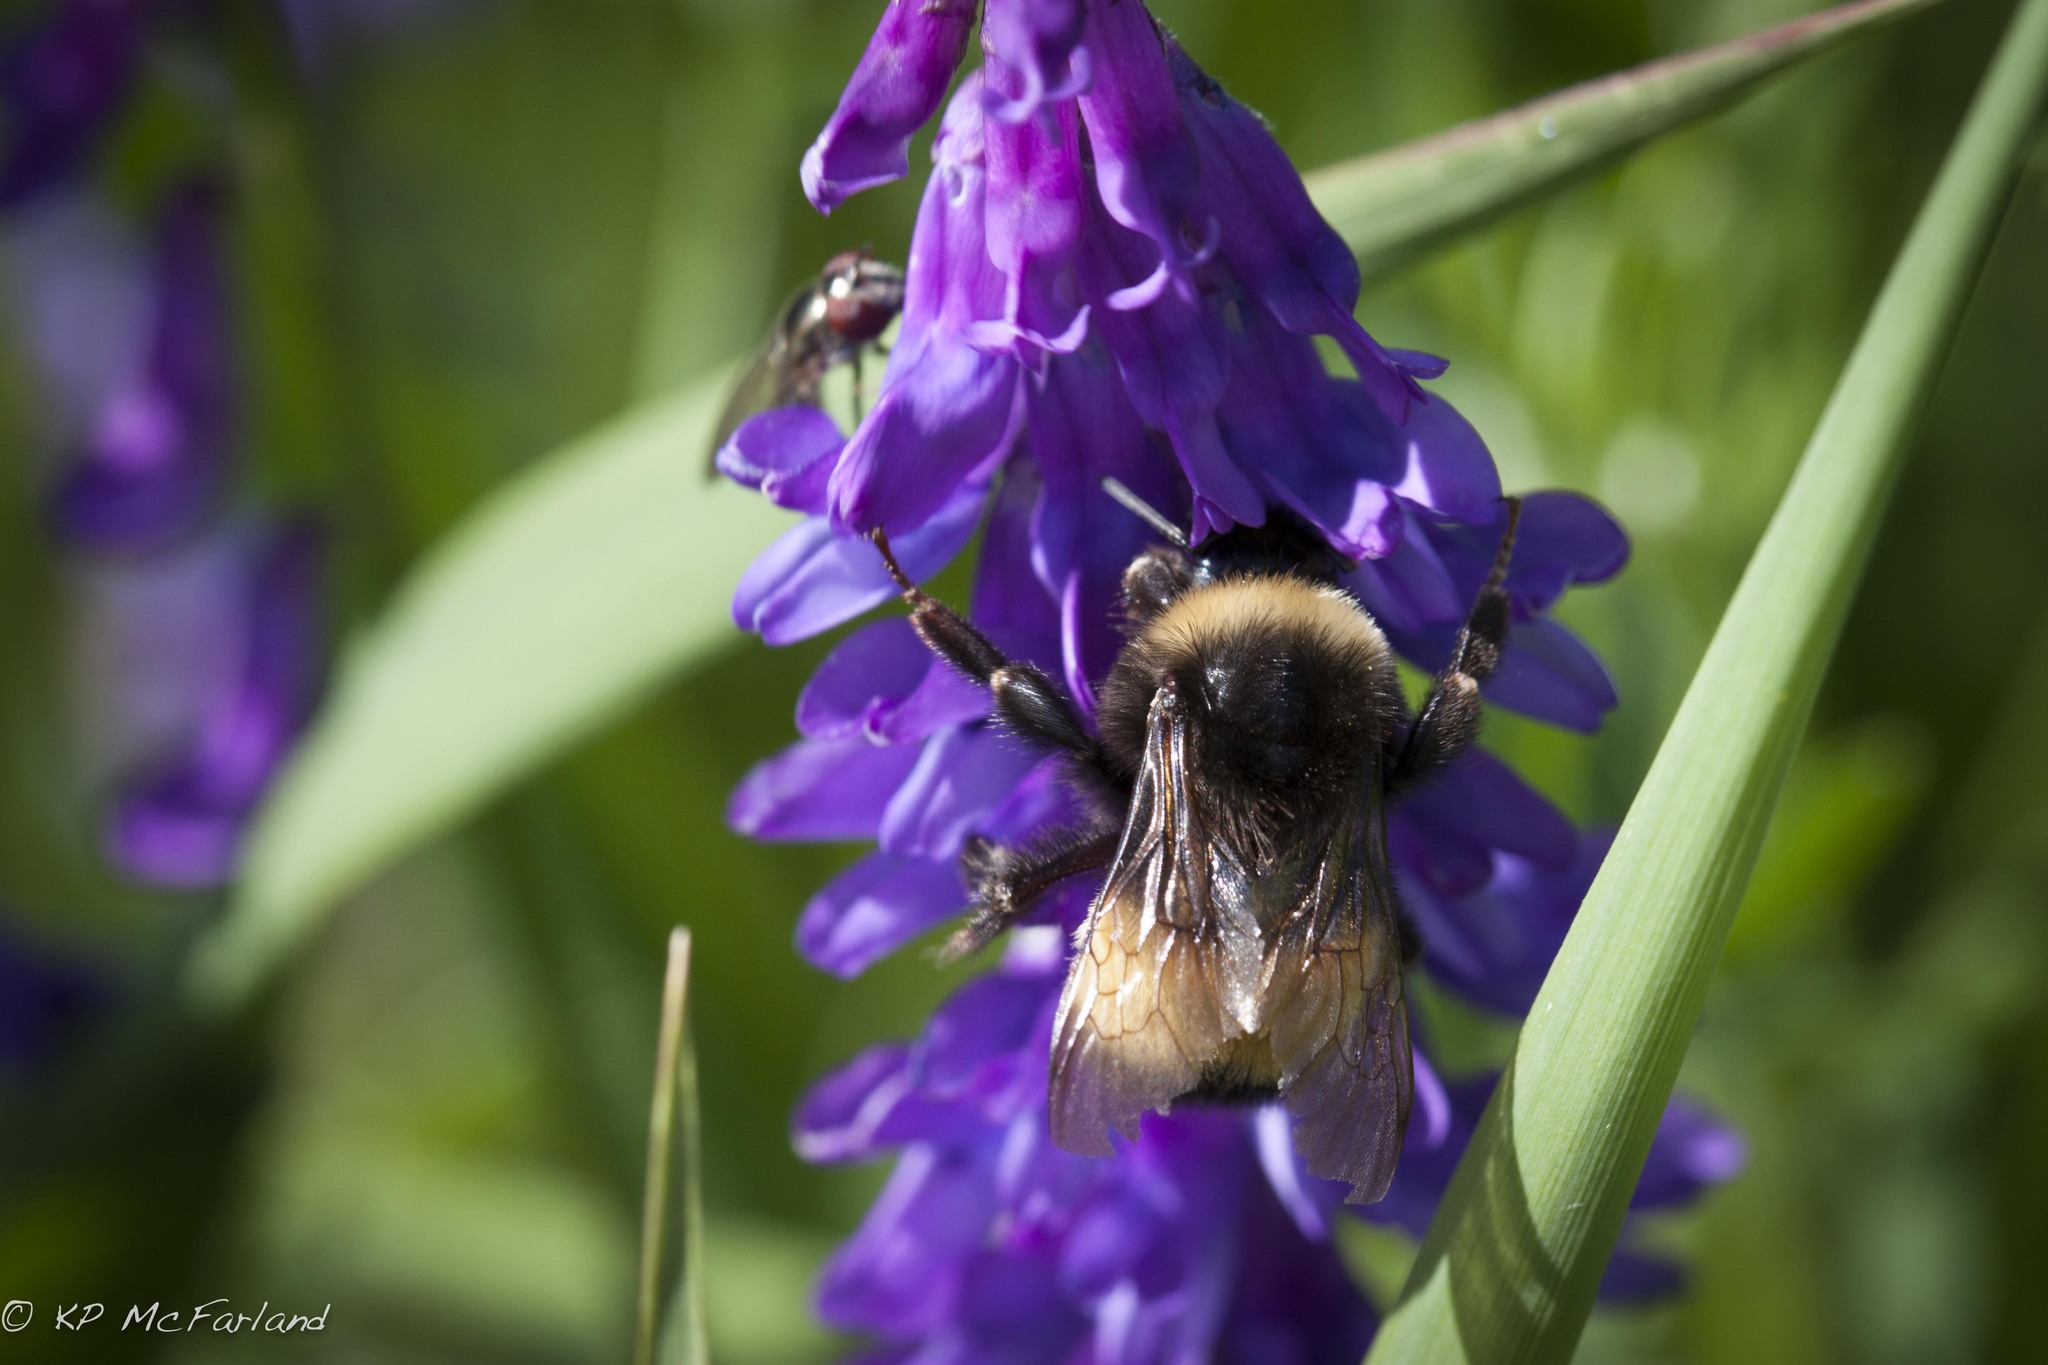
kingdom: Animalia
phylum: Arthropoda
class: Insecta
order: Hymenoptera
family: Apidae
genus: Bombus
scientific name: Bombus terricola
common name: Yellow-banded bumble bee
